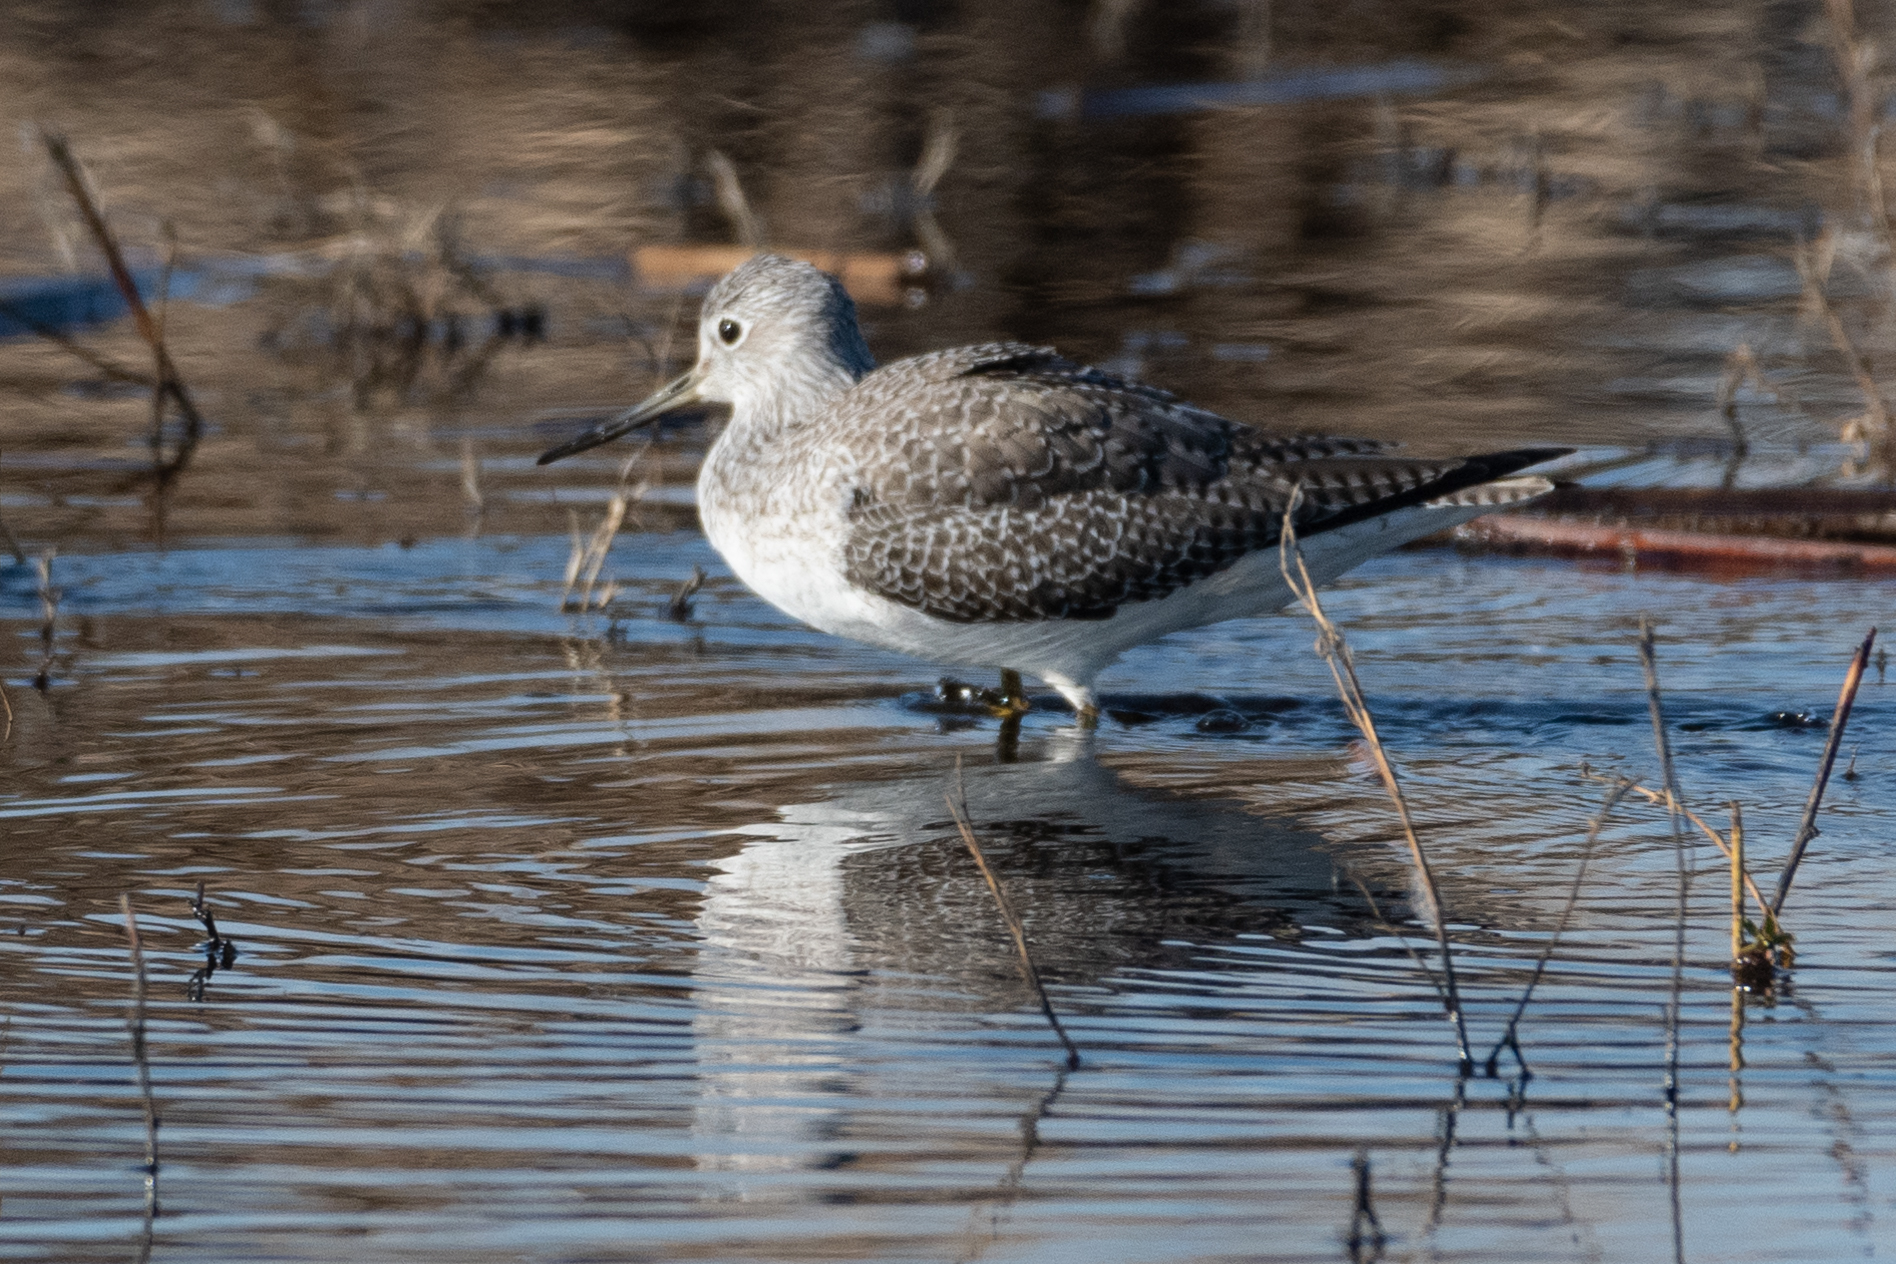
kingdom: Animalia
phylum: Chordata
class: Aves
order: Charadriiformes
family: Scolopacidae
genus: Tringa
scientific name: Tringa melanoleuca
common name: Greater yellowlegs
